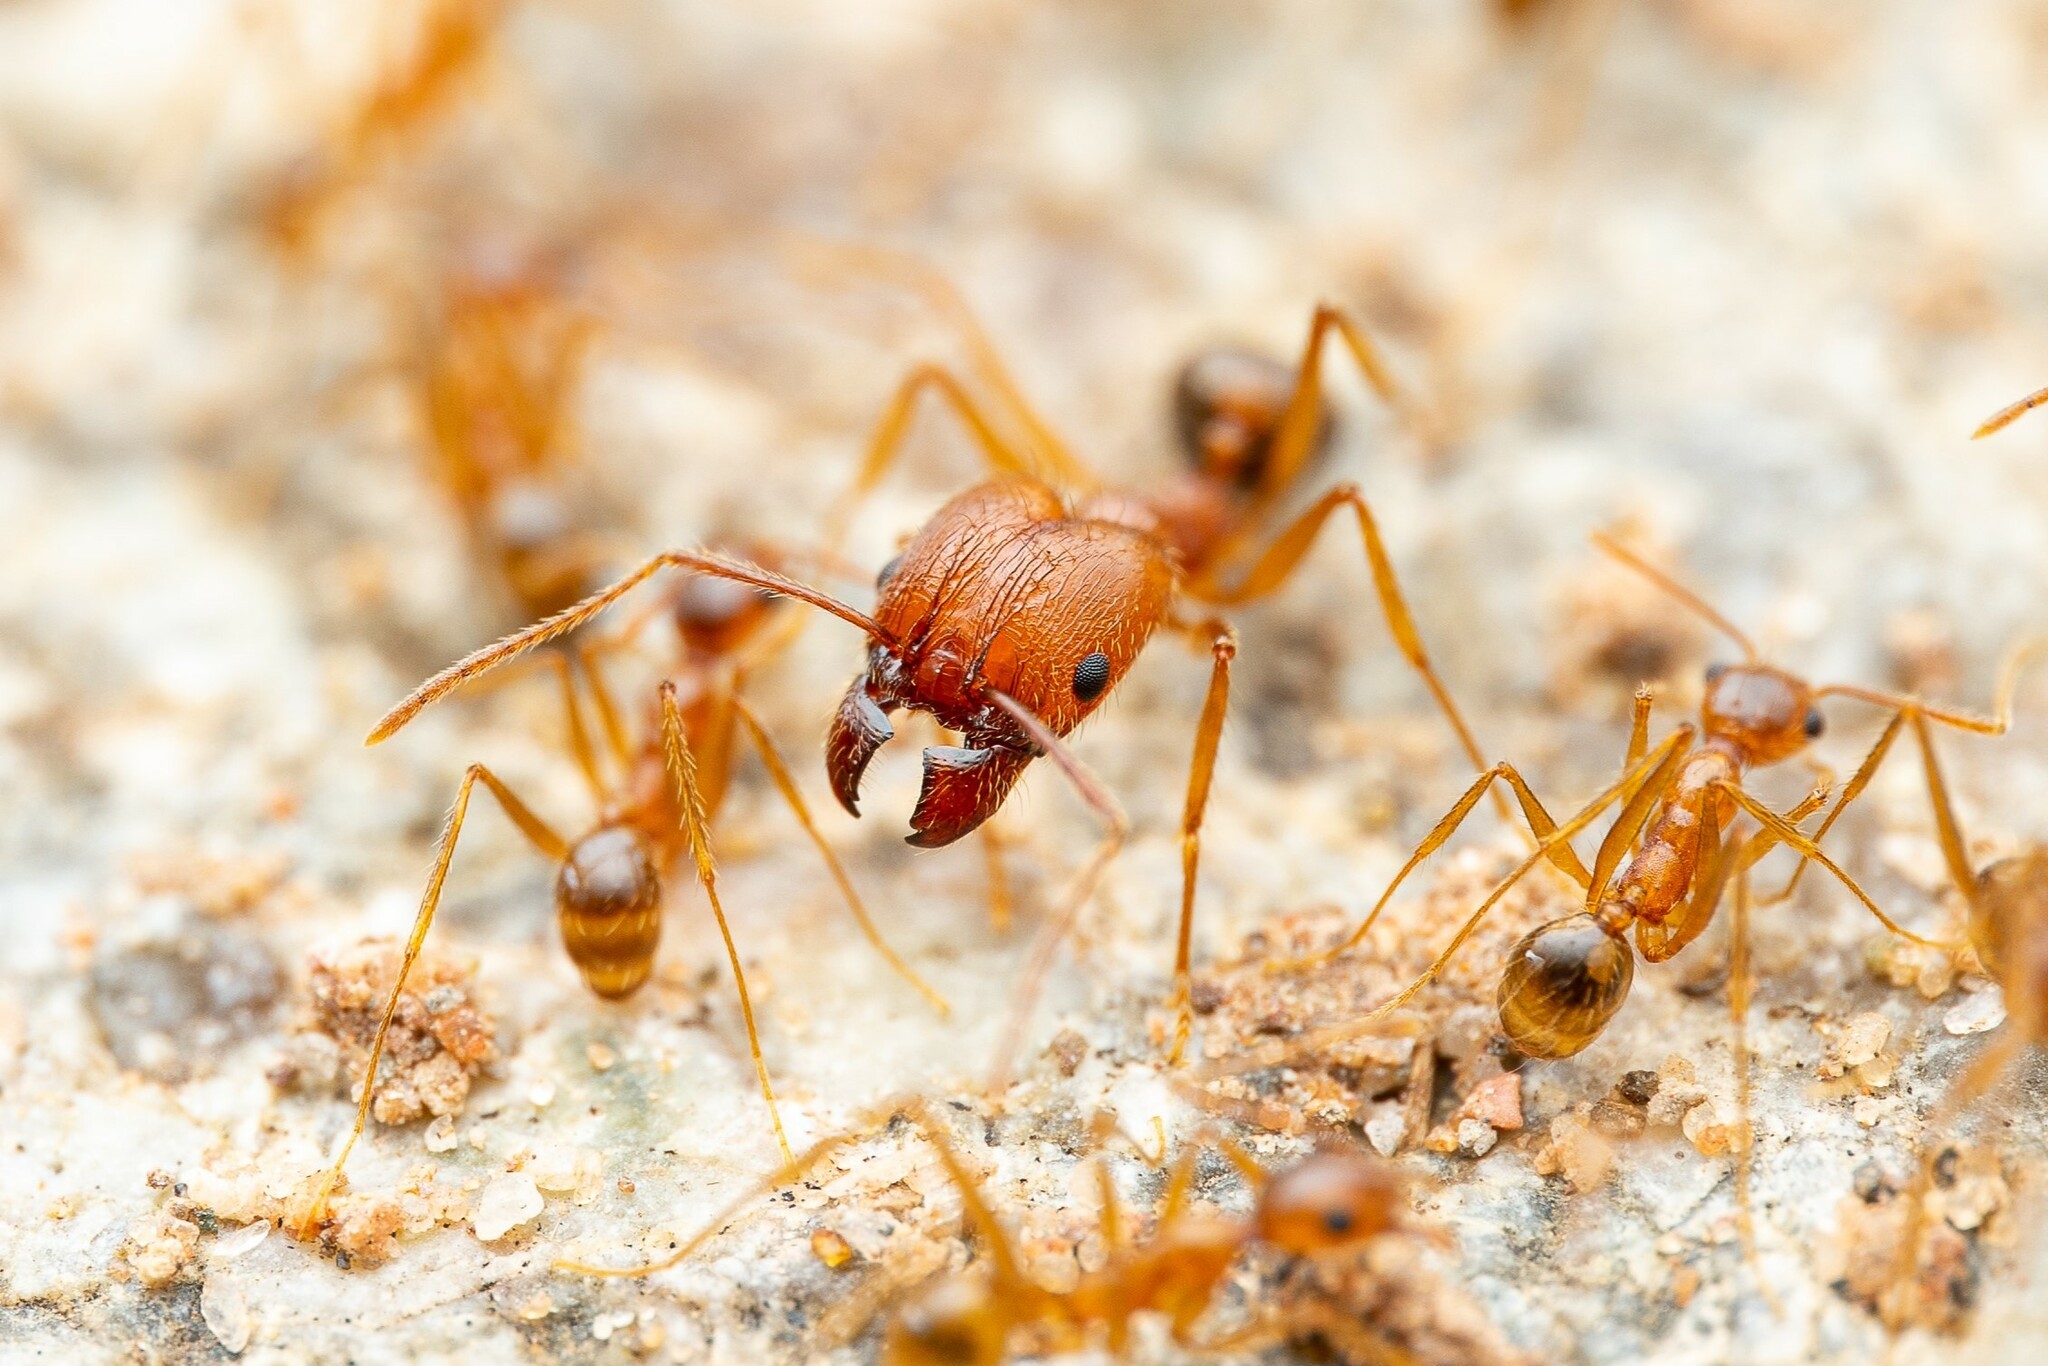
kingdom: Animalia
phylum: Arthropoda
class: Insecta
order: Hymenoptera
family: Formicidae
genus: Pheidole
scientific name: Pheidole desertorum
